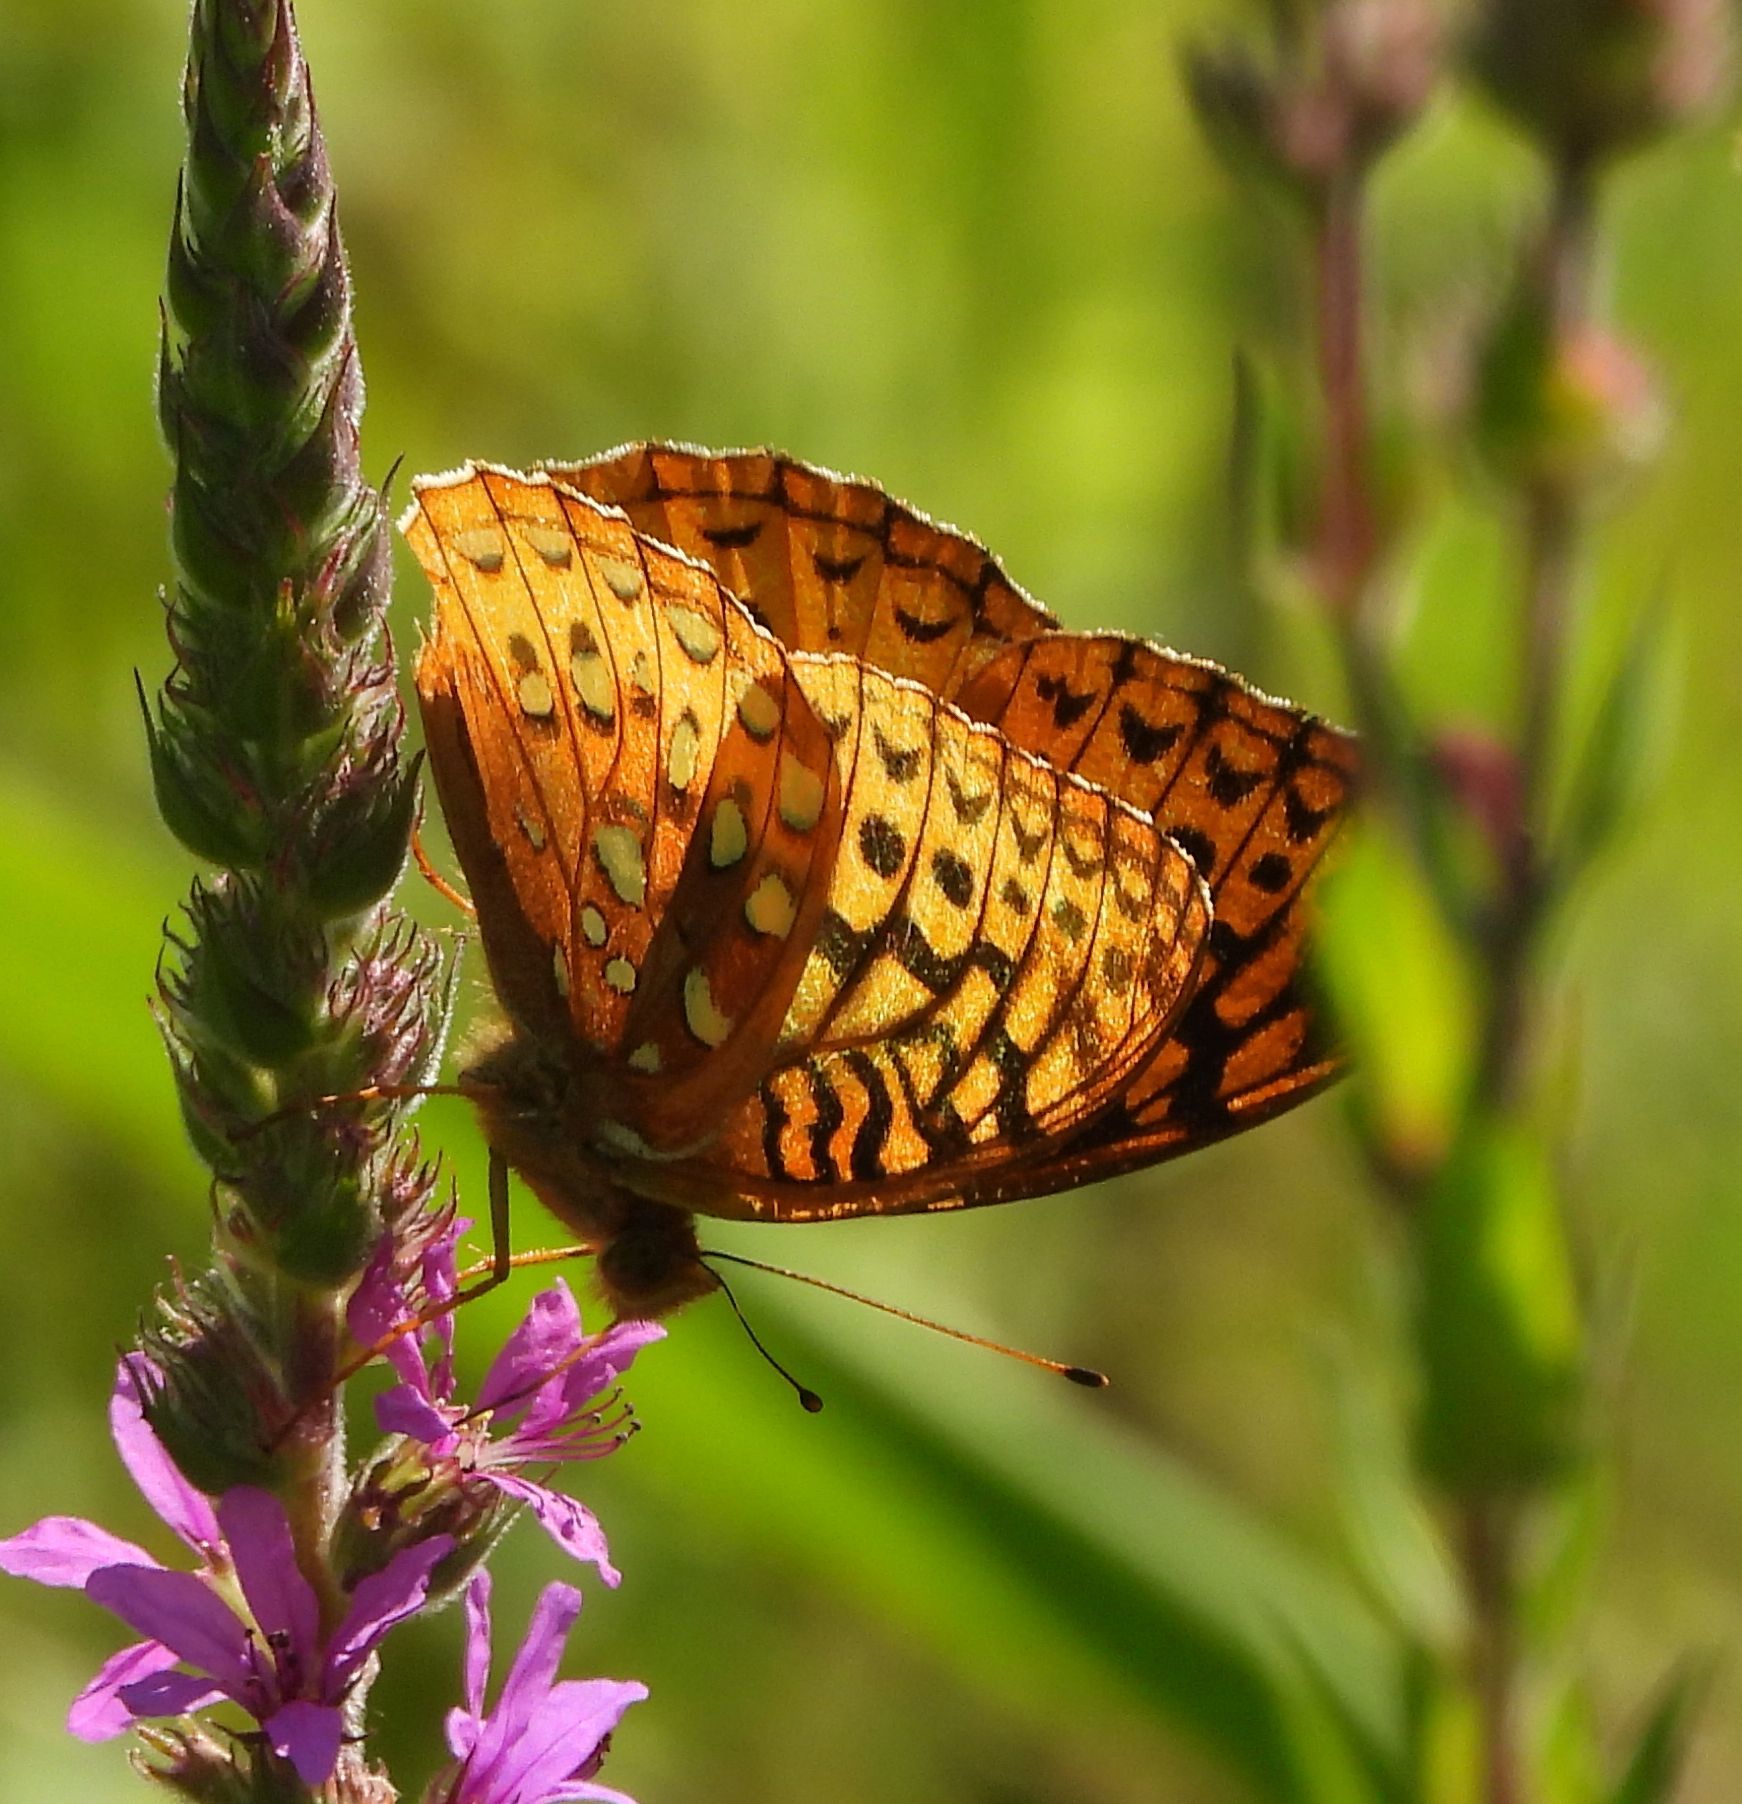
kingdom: Animalia
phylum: Arthropoda
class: Insecta
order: Lepidoptera
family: Nymphalidae
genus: Speyeria
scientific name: Speyeria cybele
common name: Great spangled fritillary
